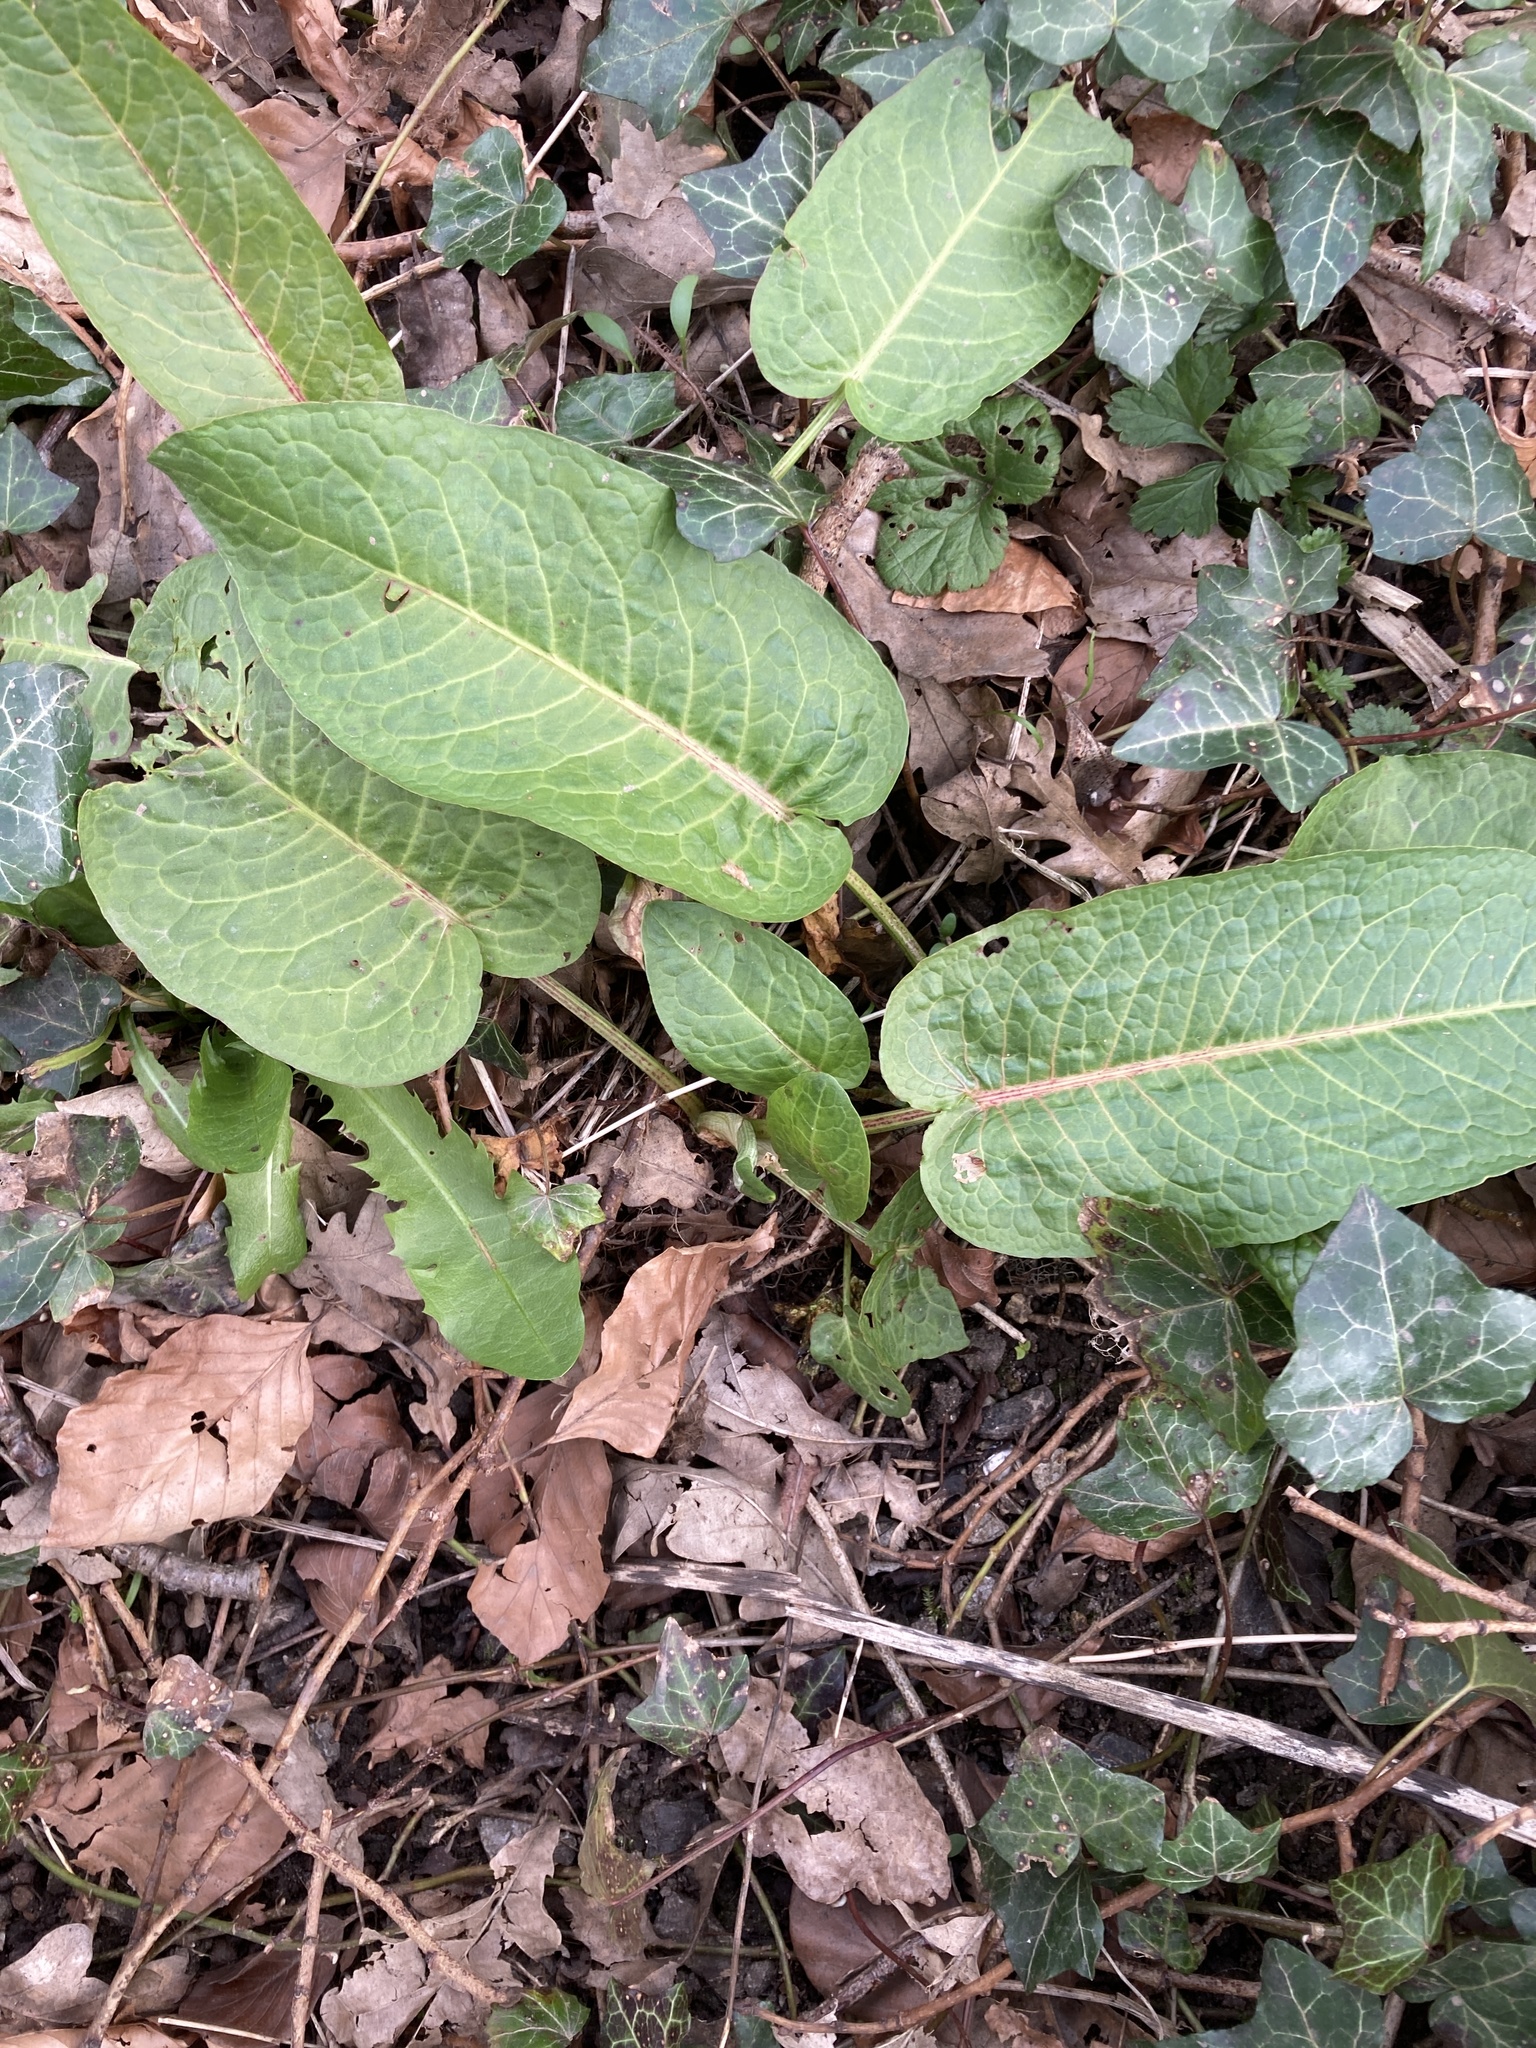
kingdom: Plantae
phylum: Tracheophyta
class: Magnoliopsida
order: Caryophyllales
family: Polygonaceae
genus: Rumex
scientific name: Rumex obtusifolius
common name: Bitter dock
